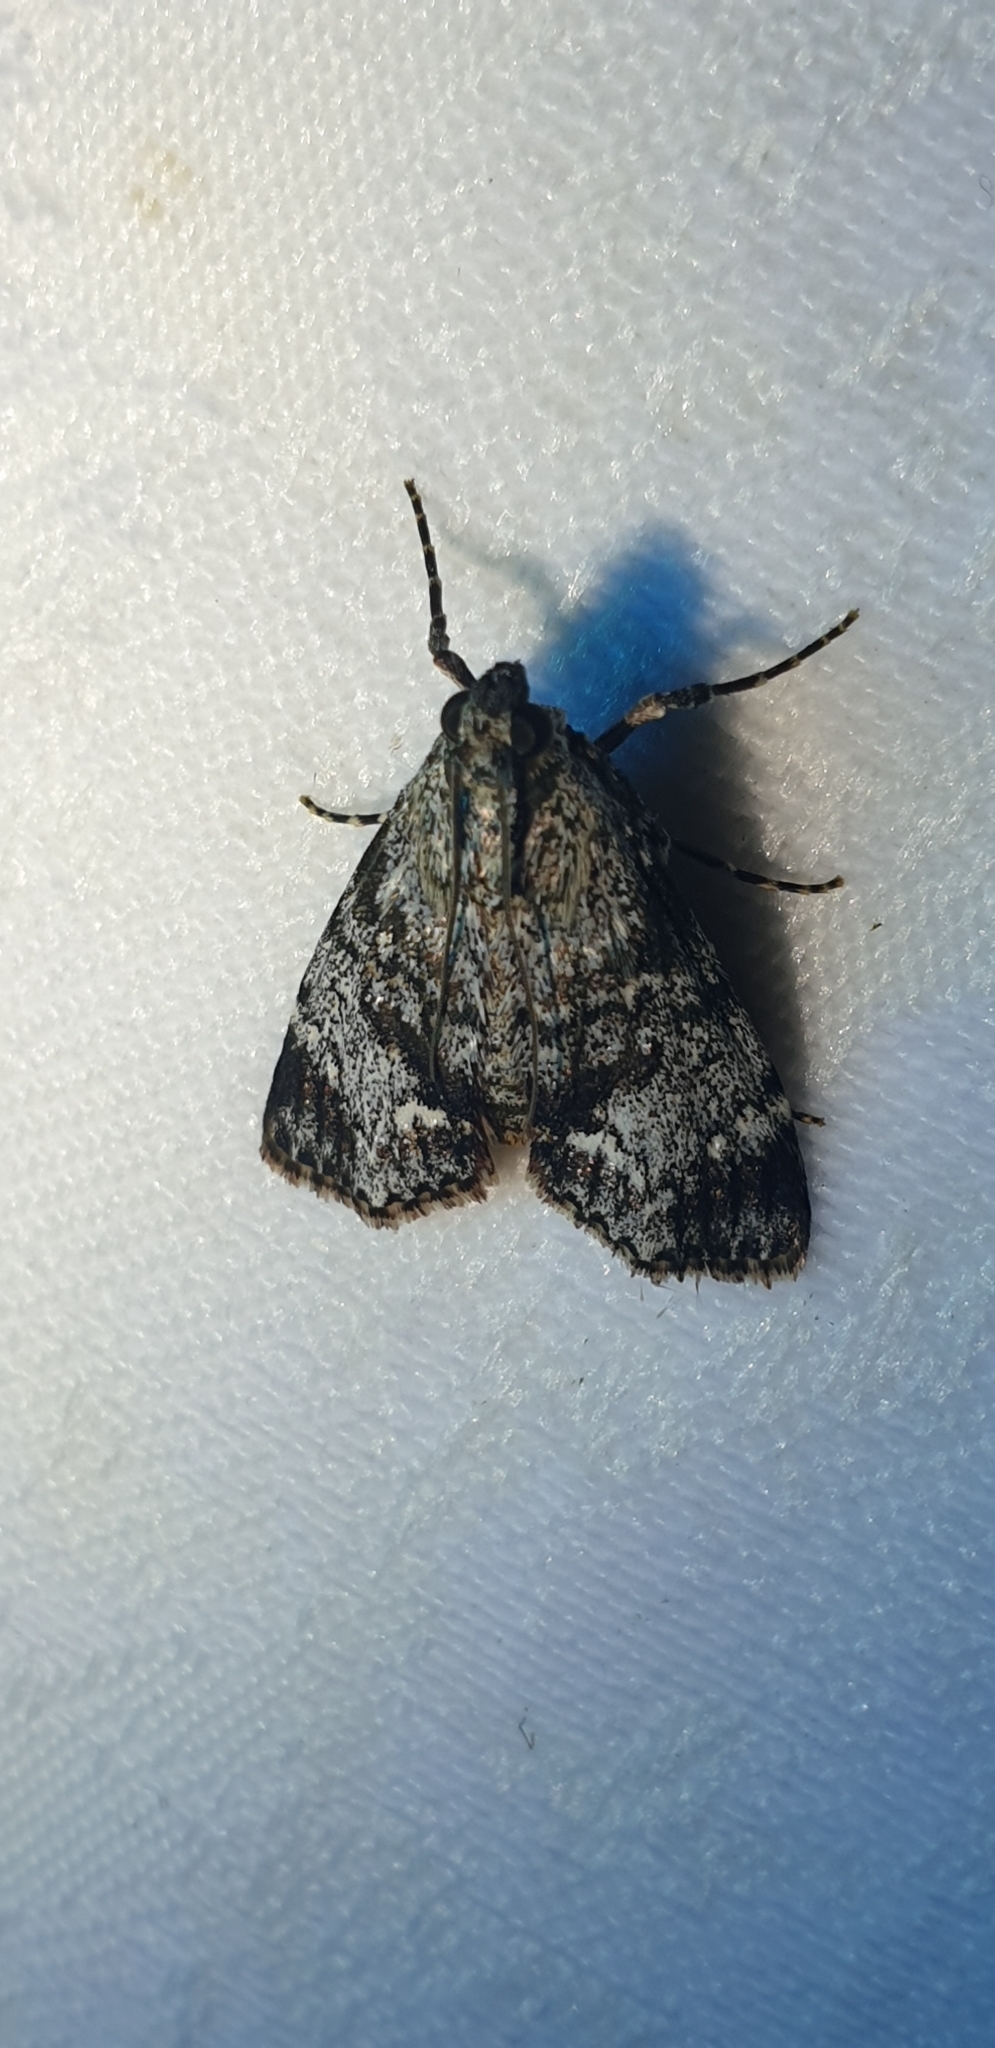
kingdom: Animalia
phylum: Arthropoda
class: Insecta
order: Lepidoptera
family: Pyralidae
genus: Stericta
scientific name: Stericta concisella
